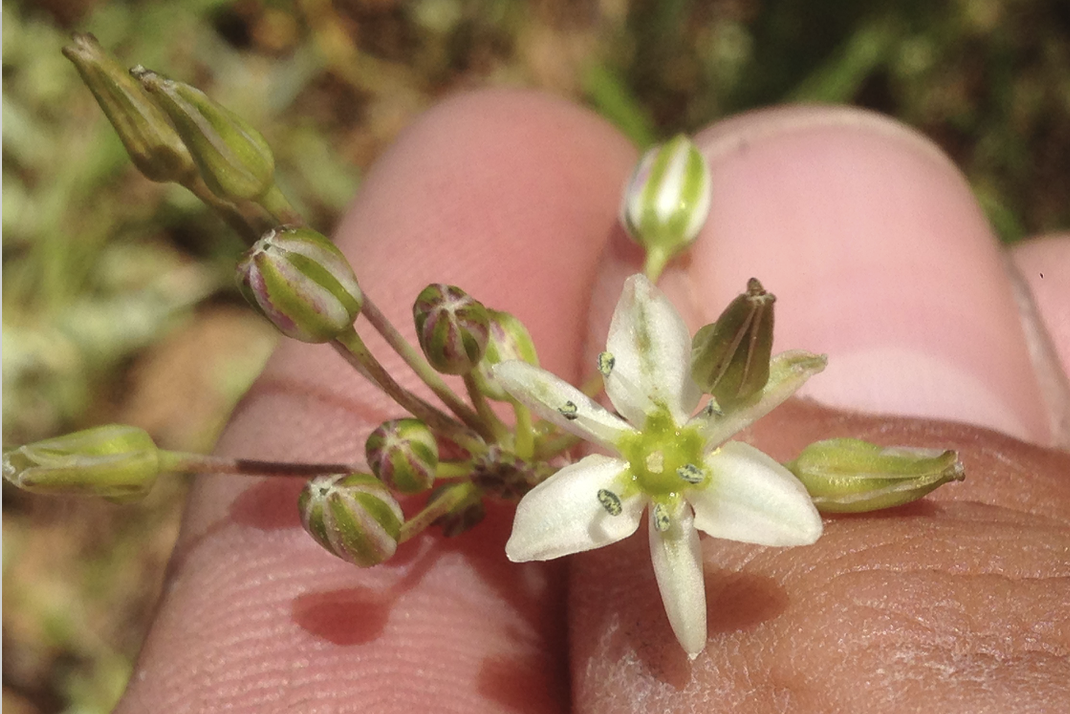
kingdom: Plantae
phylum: Tracheophyta
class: Liliopsida
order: Asparagales
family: Asparagaceae
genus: Muilla
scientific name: Muilla maritima
